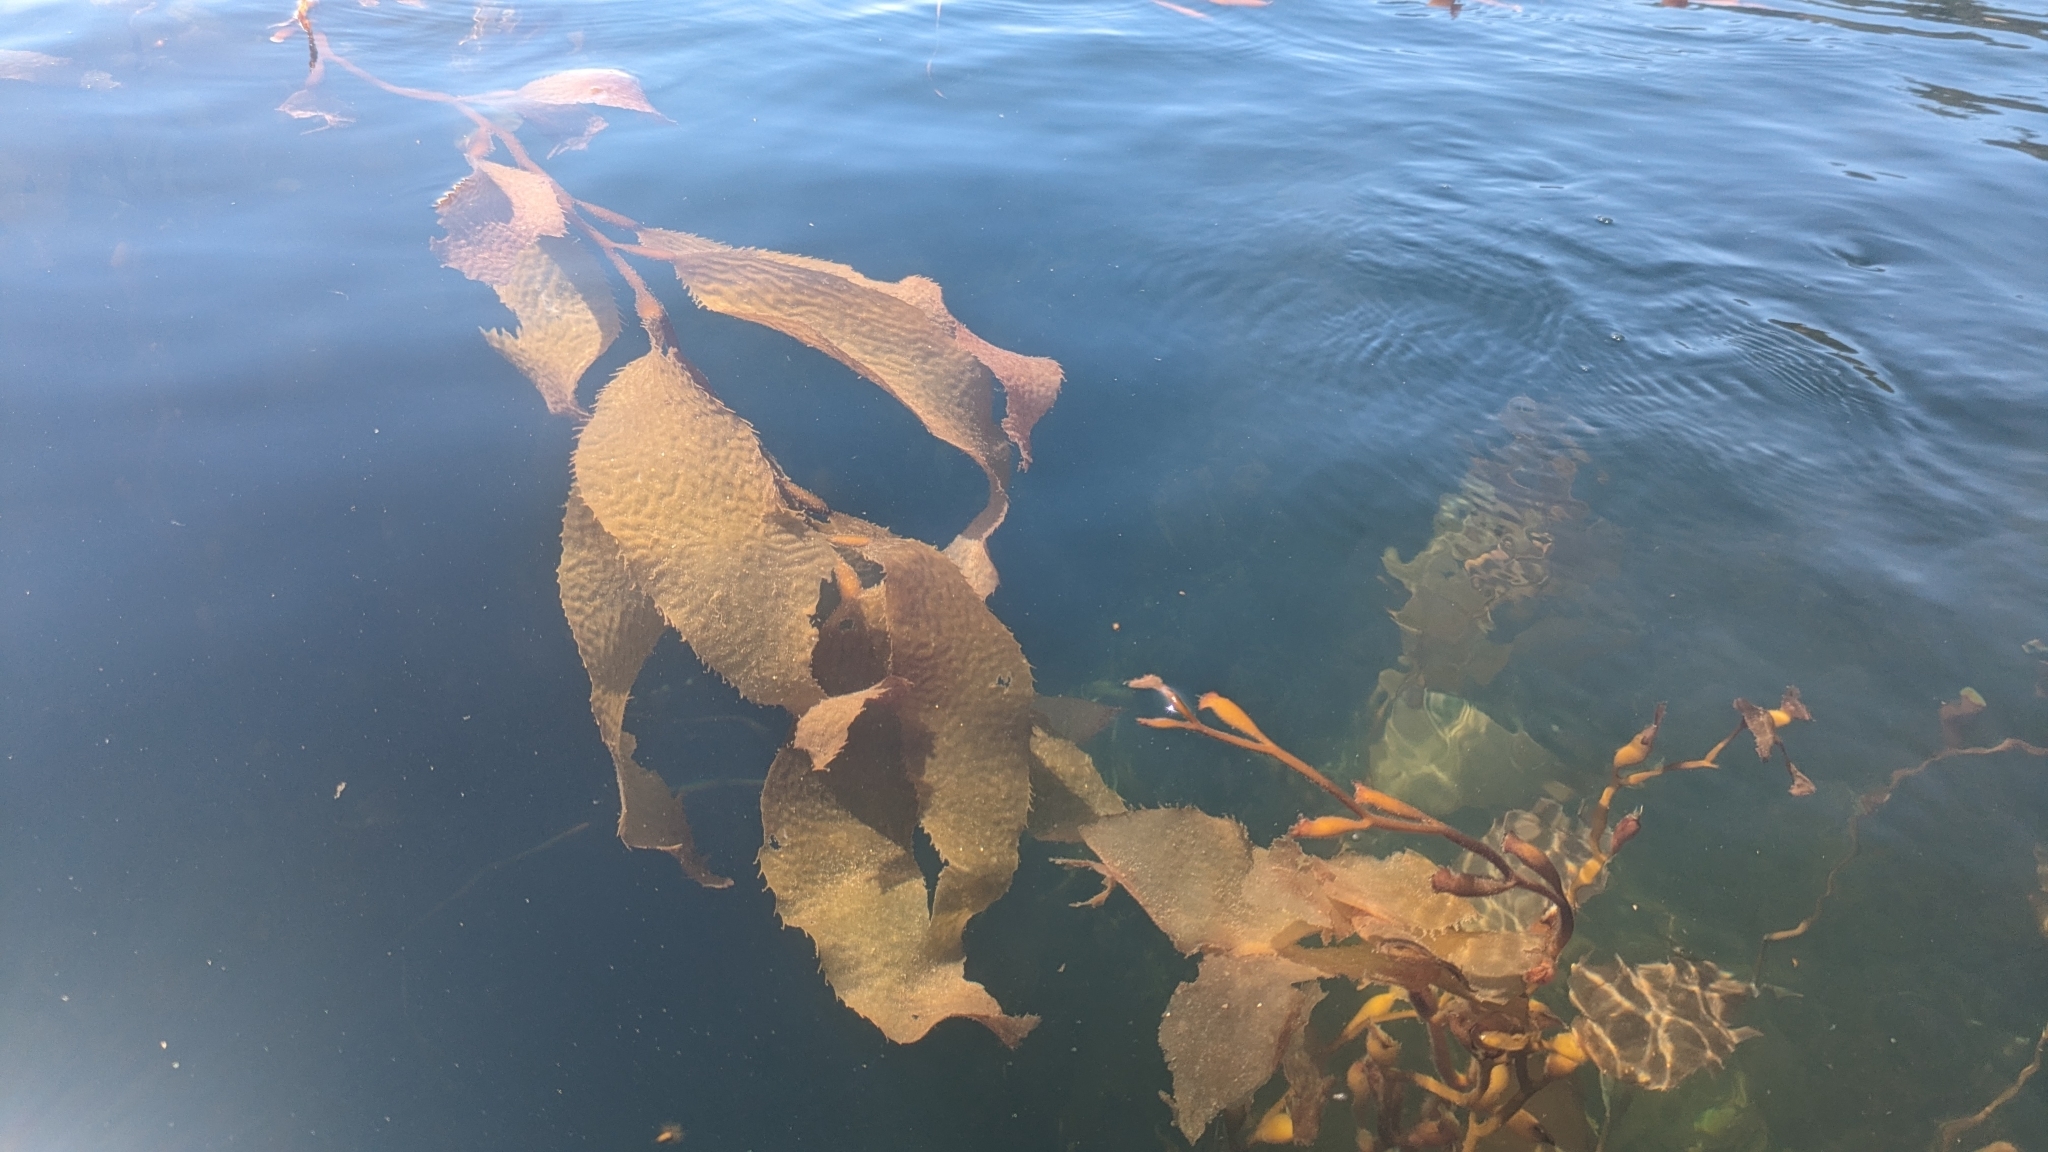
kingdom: Chromista
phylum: Ochrophyta
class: Phaeophyceae
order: Laminariales
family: Laminariaceae
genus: Macrocystis
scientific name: Macrocystis pyrifera
